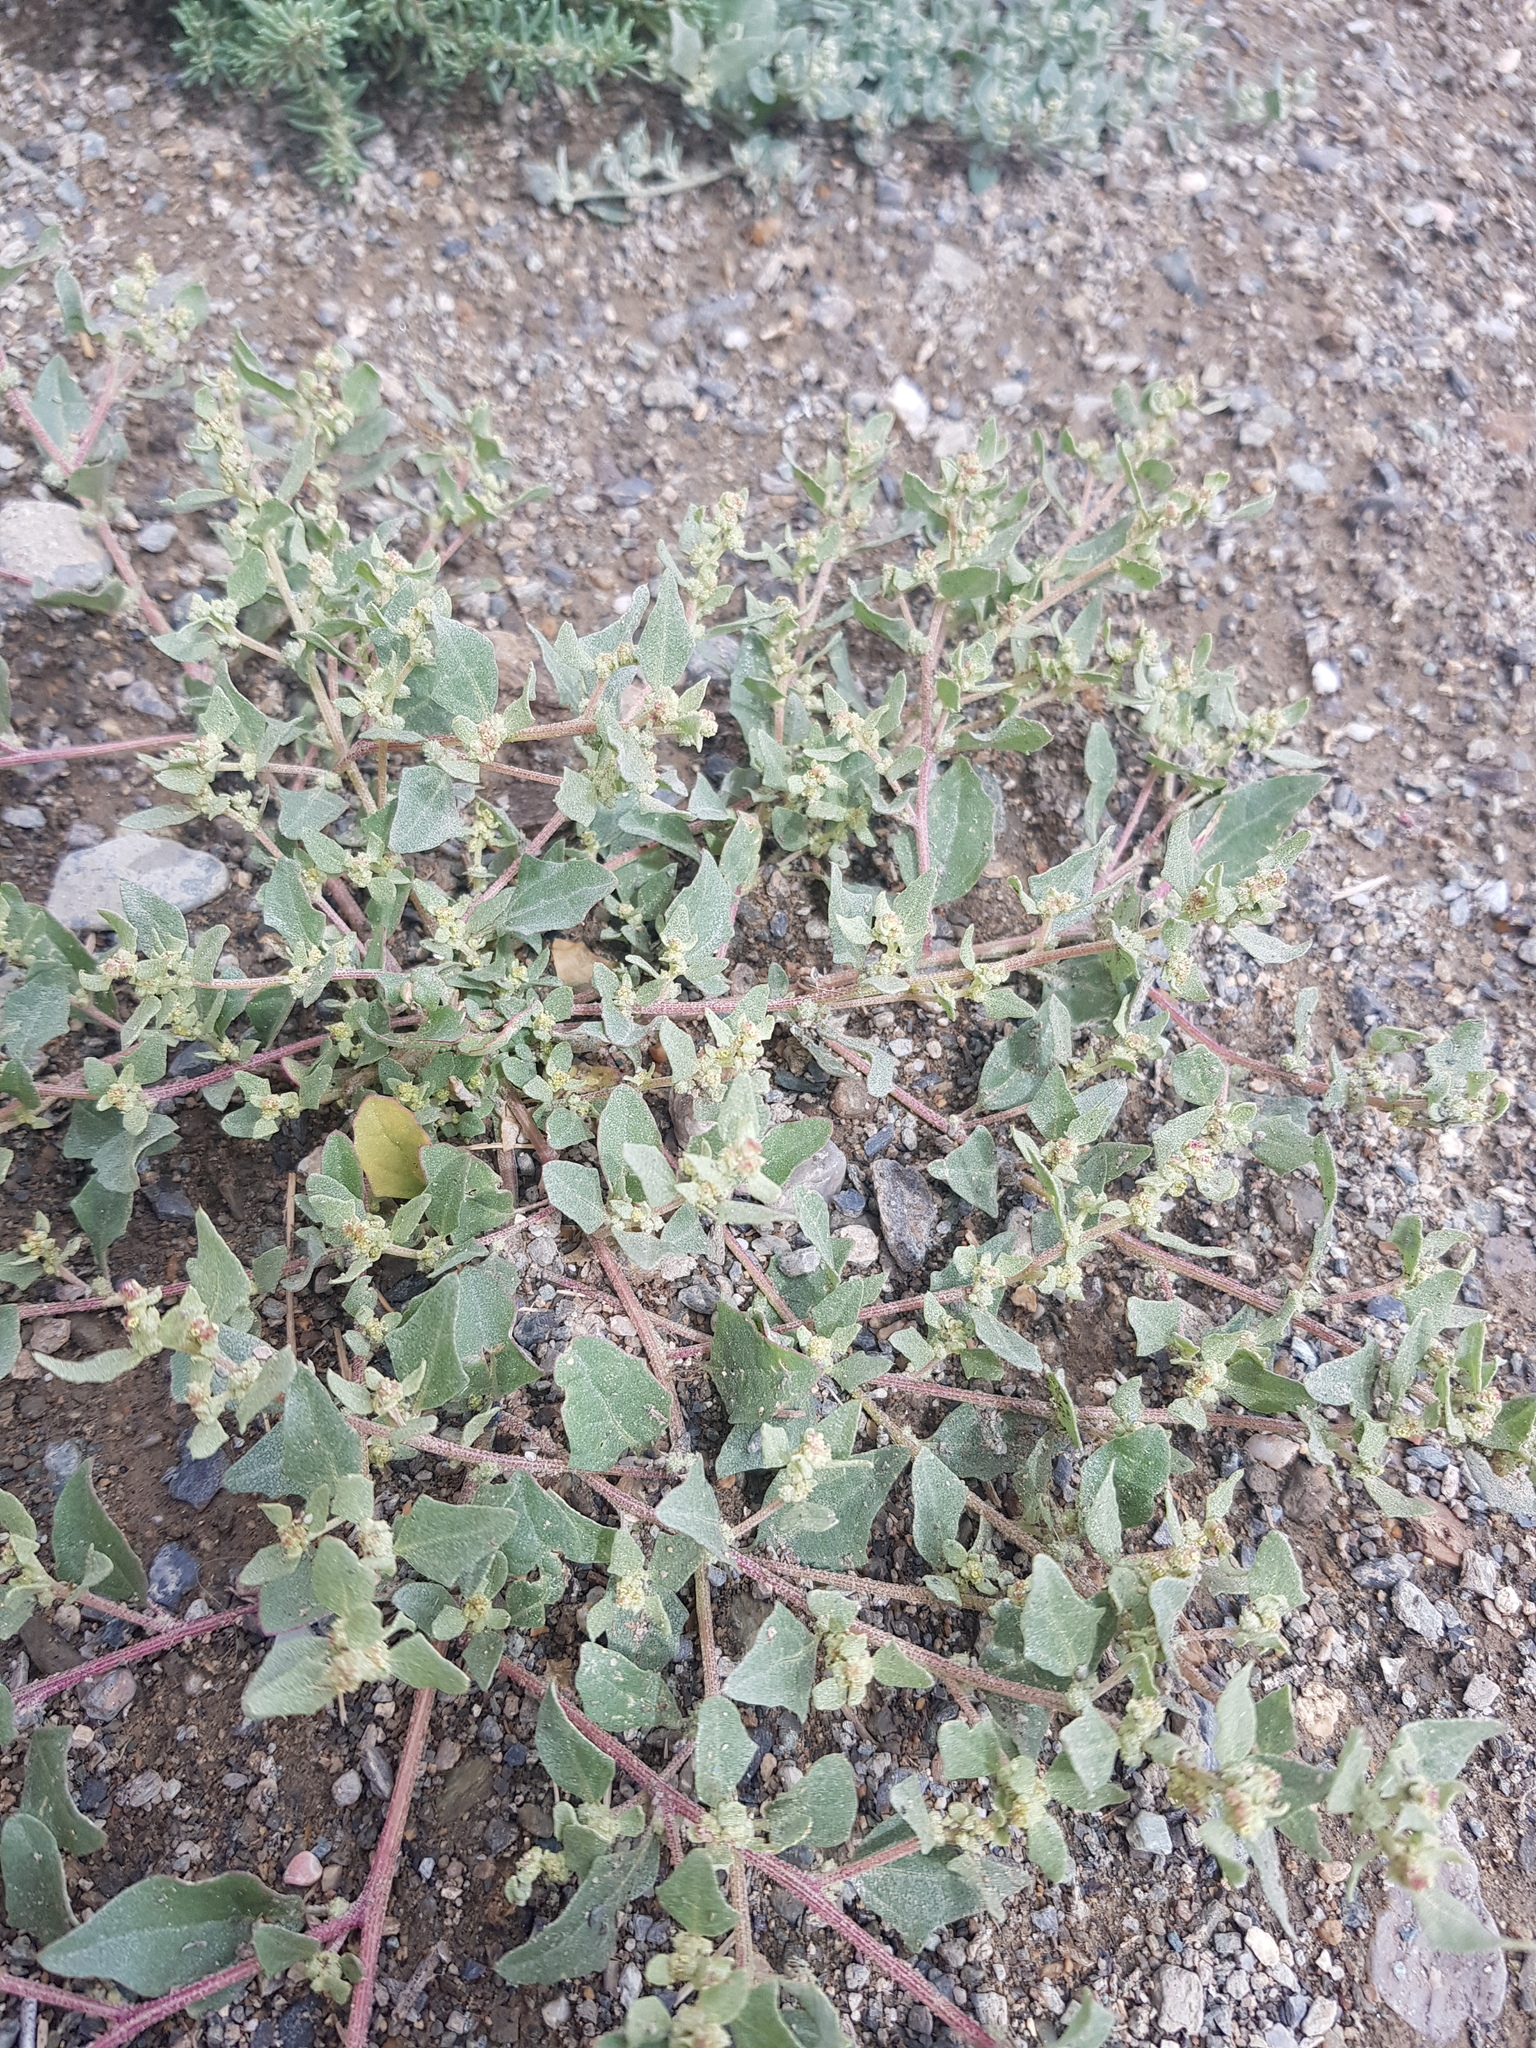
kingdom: Plantae
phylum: Tracheophyta
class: Magnoliopsida
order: Caryophyllales
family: Amaranthaceae
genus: Atriplex
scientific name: Atriplex sibirica
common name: Siberian saltbush
